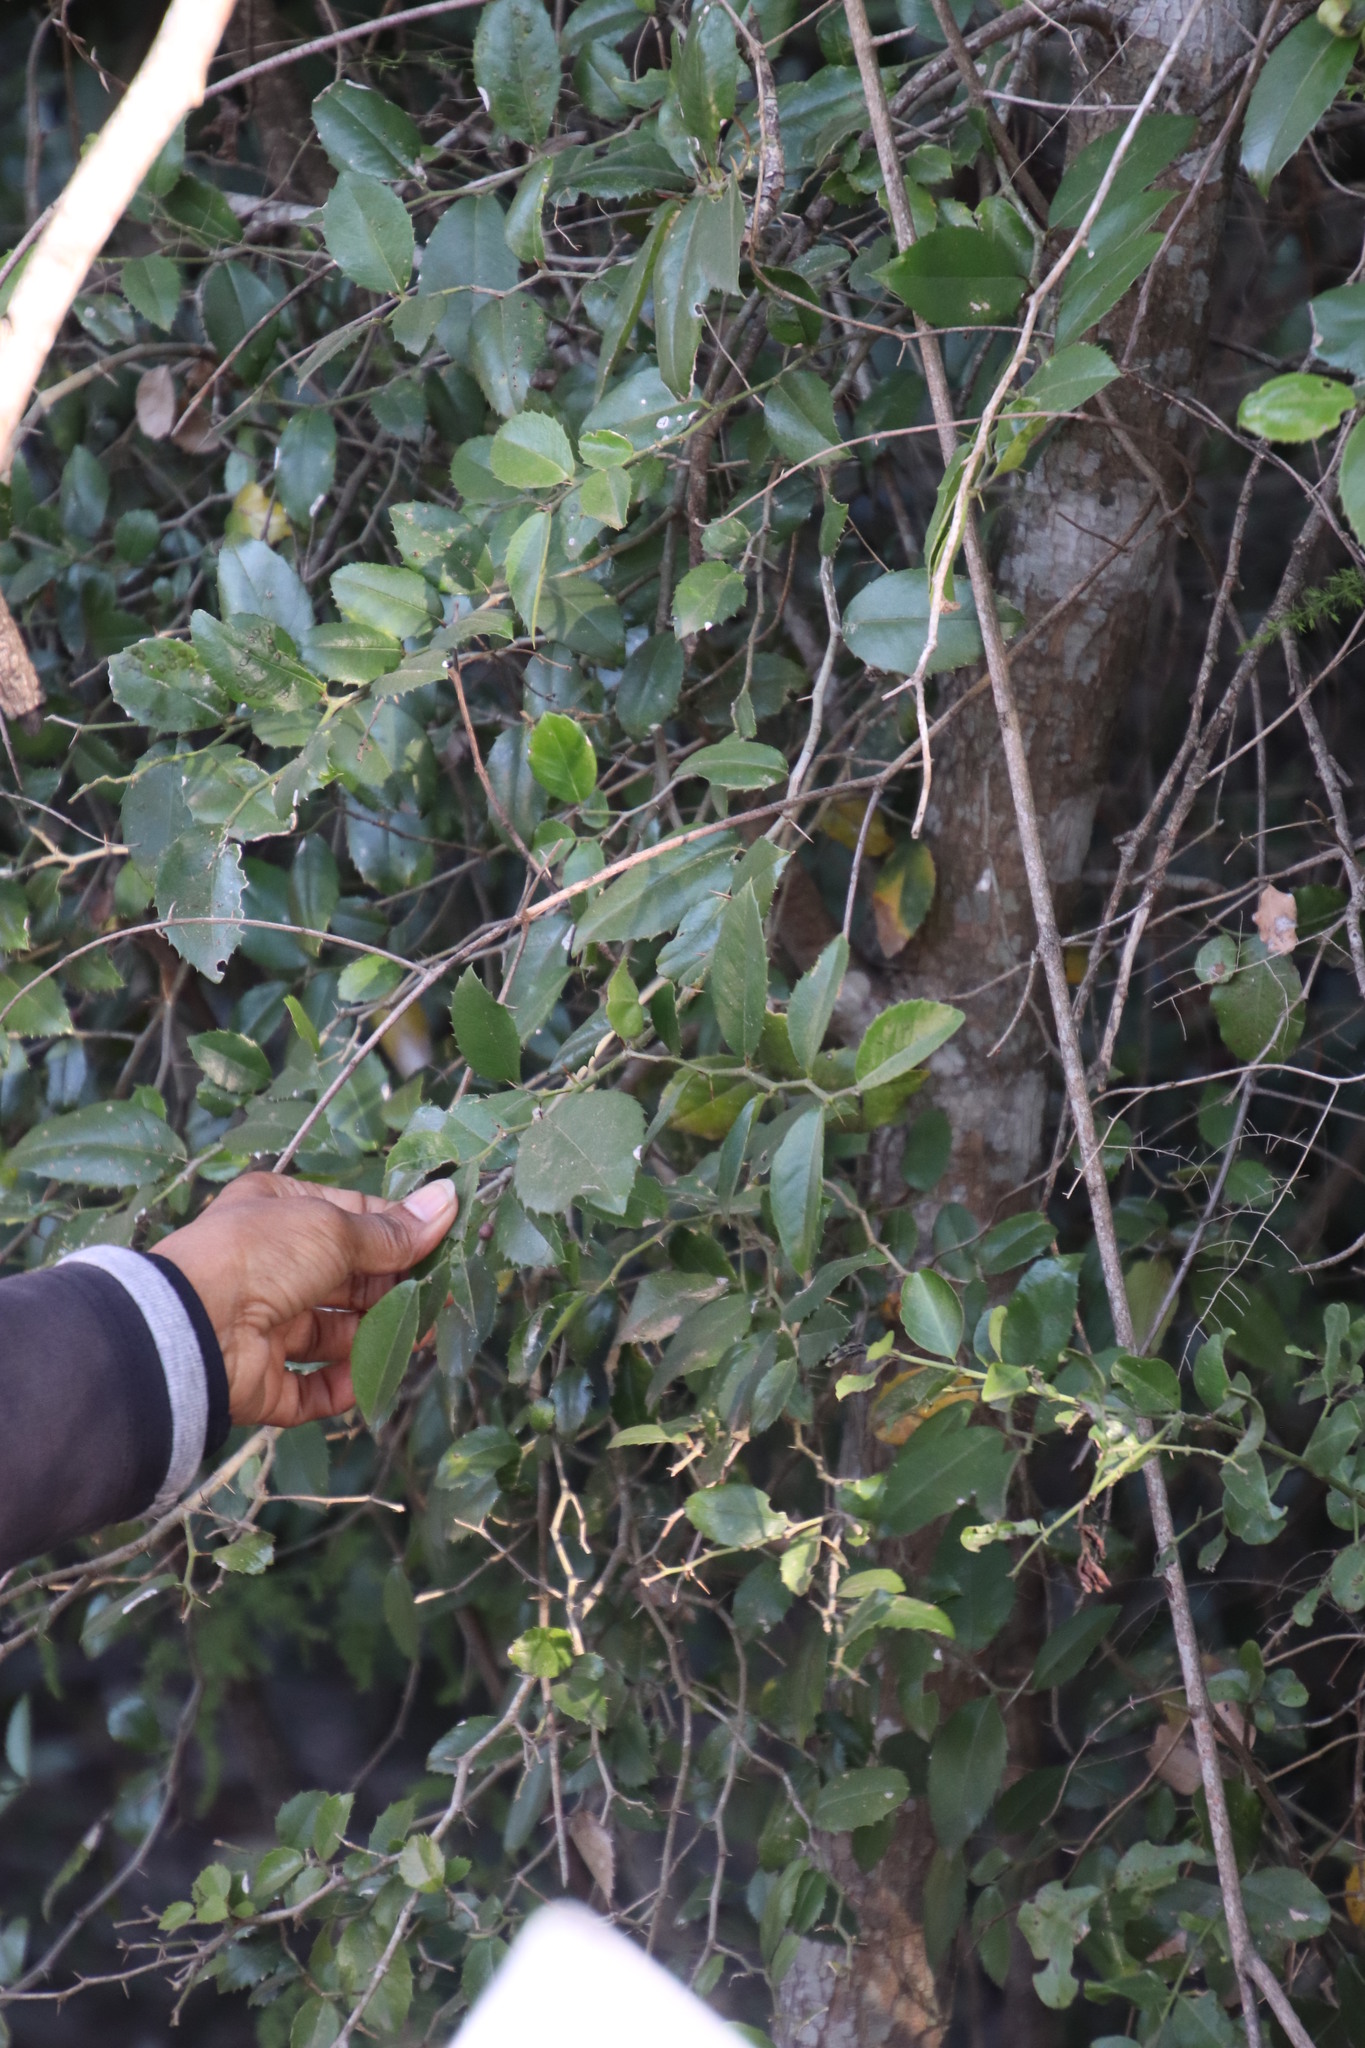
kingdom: Plantae
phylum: Tracheophyta
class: Magnoliopsida
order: Rosales
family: Cannabaceae
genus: Chaetachme
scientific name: Chaetachme aristata
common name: Thorny elm
